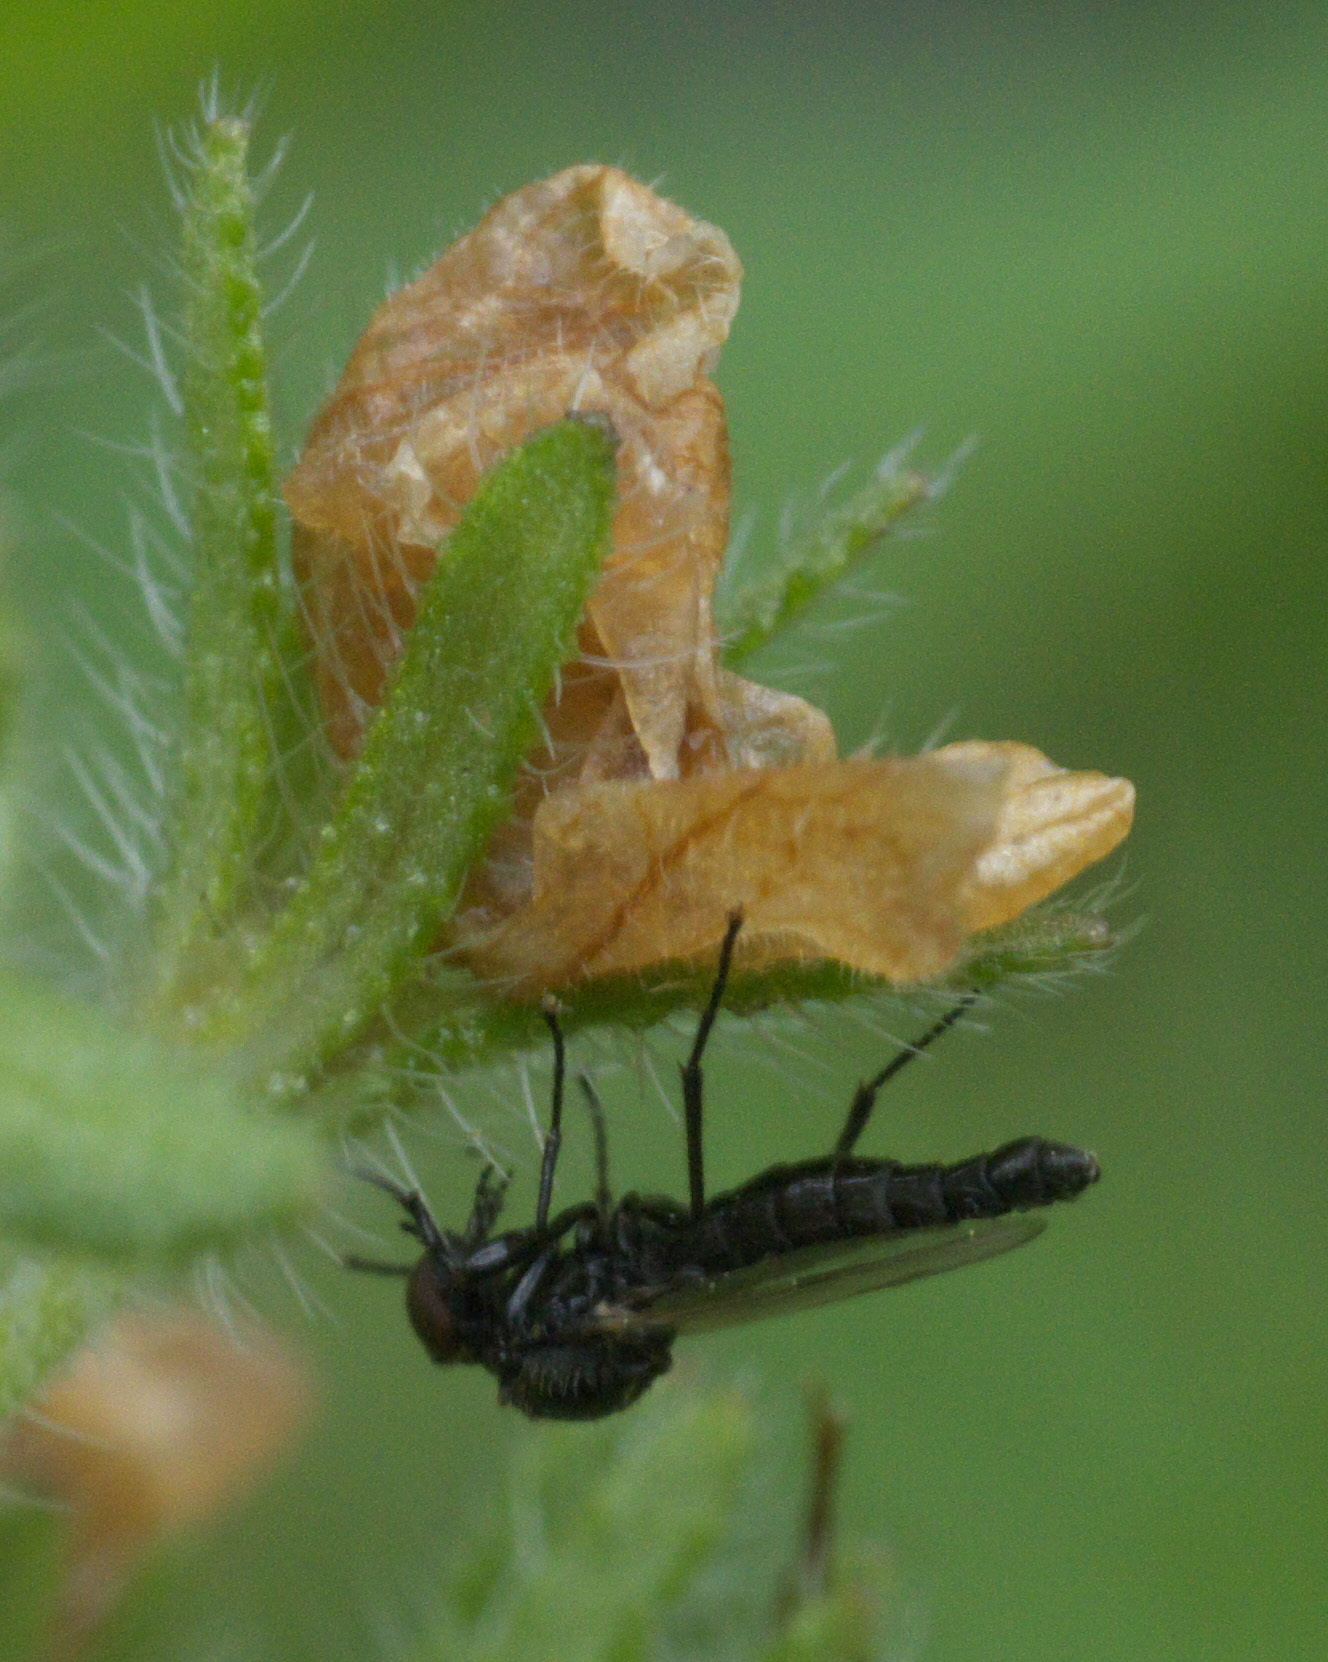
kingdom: Animalia
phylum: Arthropoda
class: Insecta
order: Diptera
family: Bibionidae
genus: Dilophus
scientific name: Dilophus
